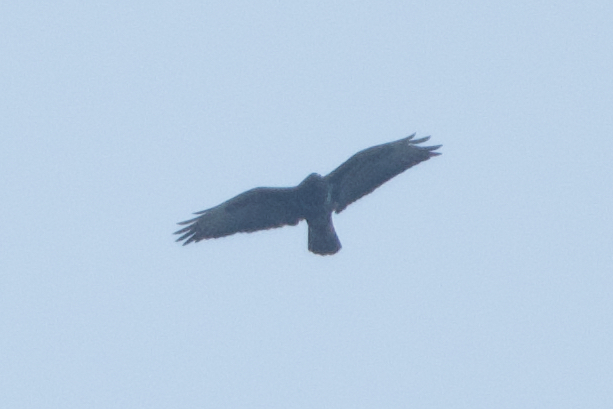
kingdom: Animalia
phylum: Chordata
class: Aves
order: Accipitriformes
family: Accipitridae
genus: Buteo
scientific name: Buteo buteo
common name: Common buzzard
